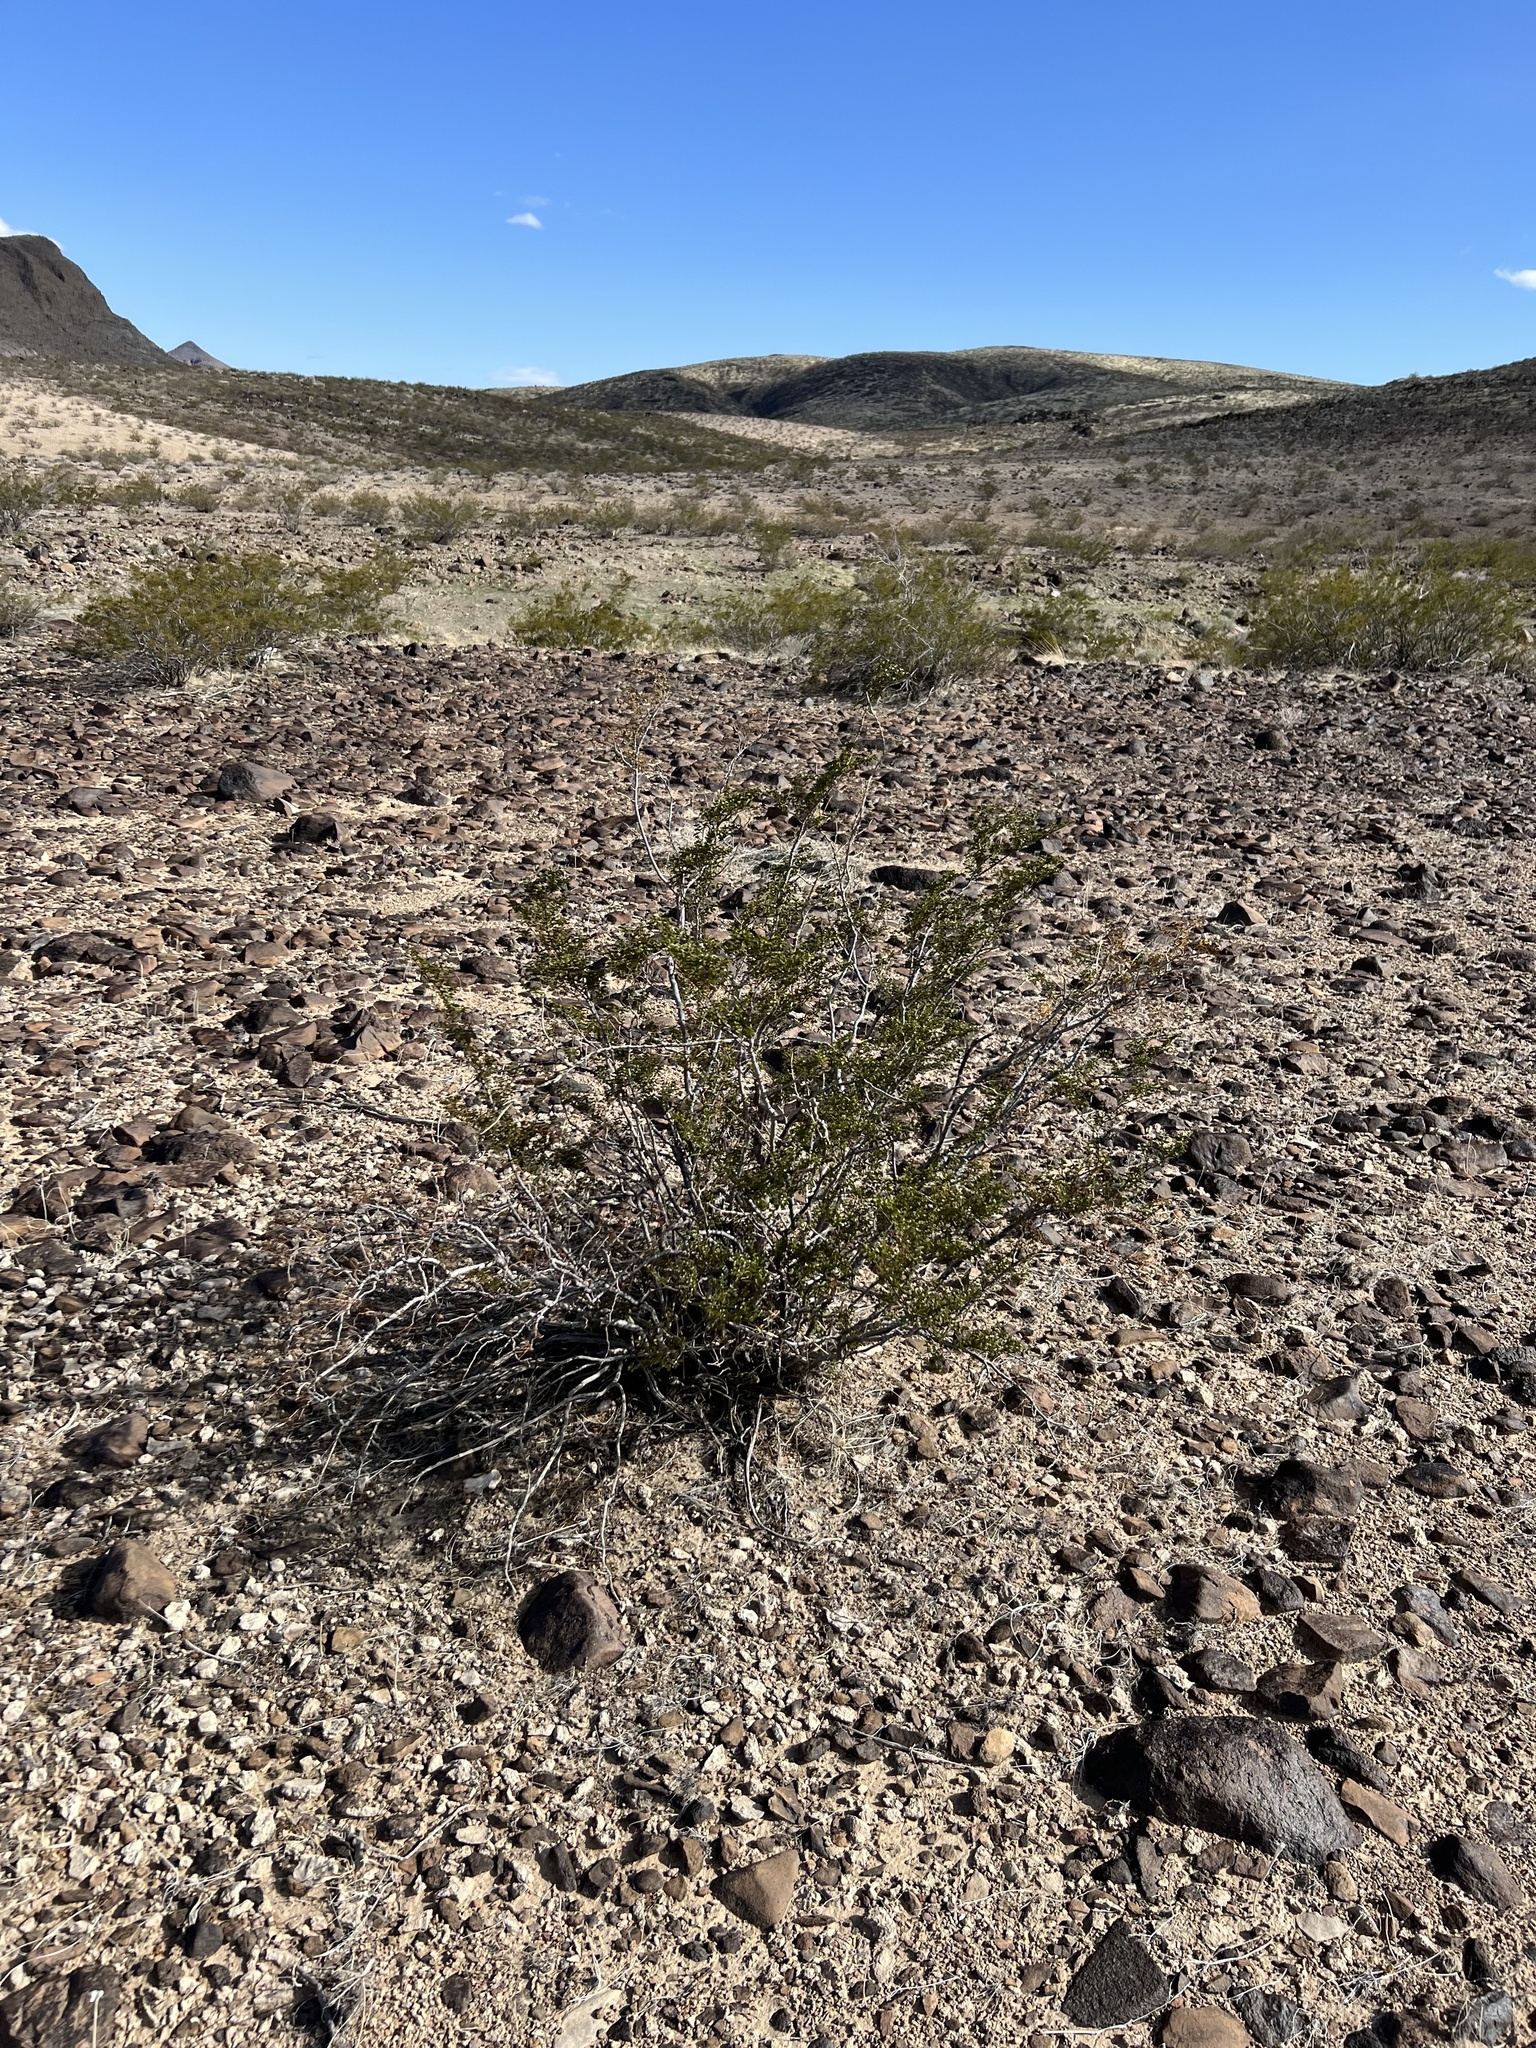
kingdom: Plantae
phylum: Tracheophyta
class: Magnoliopsida
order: Zygophyllales
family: Zygophyllaceae
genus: Larrea
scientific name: Larrea tridentata
